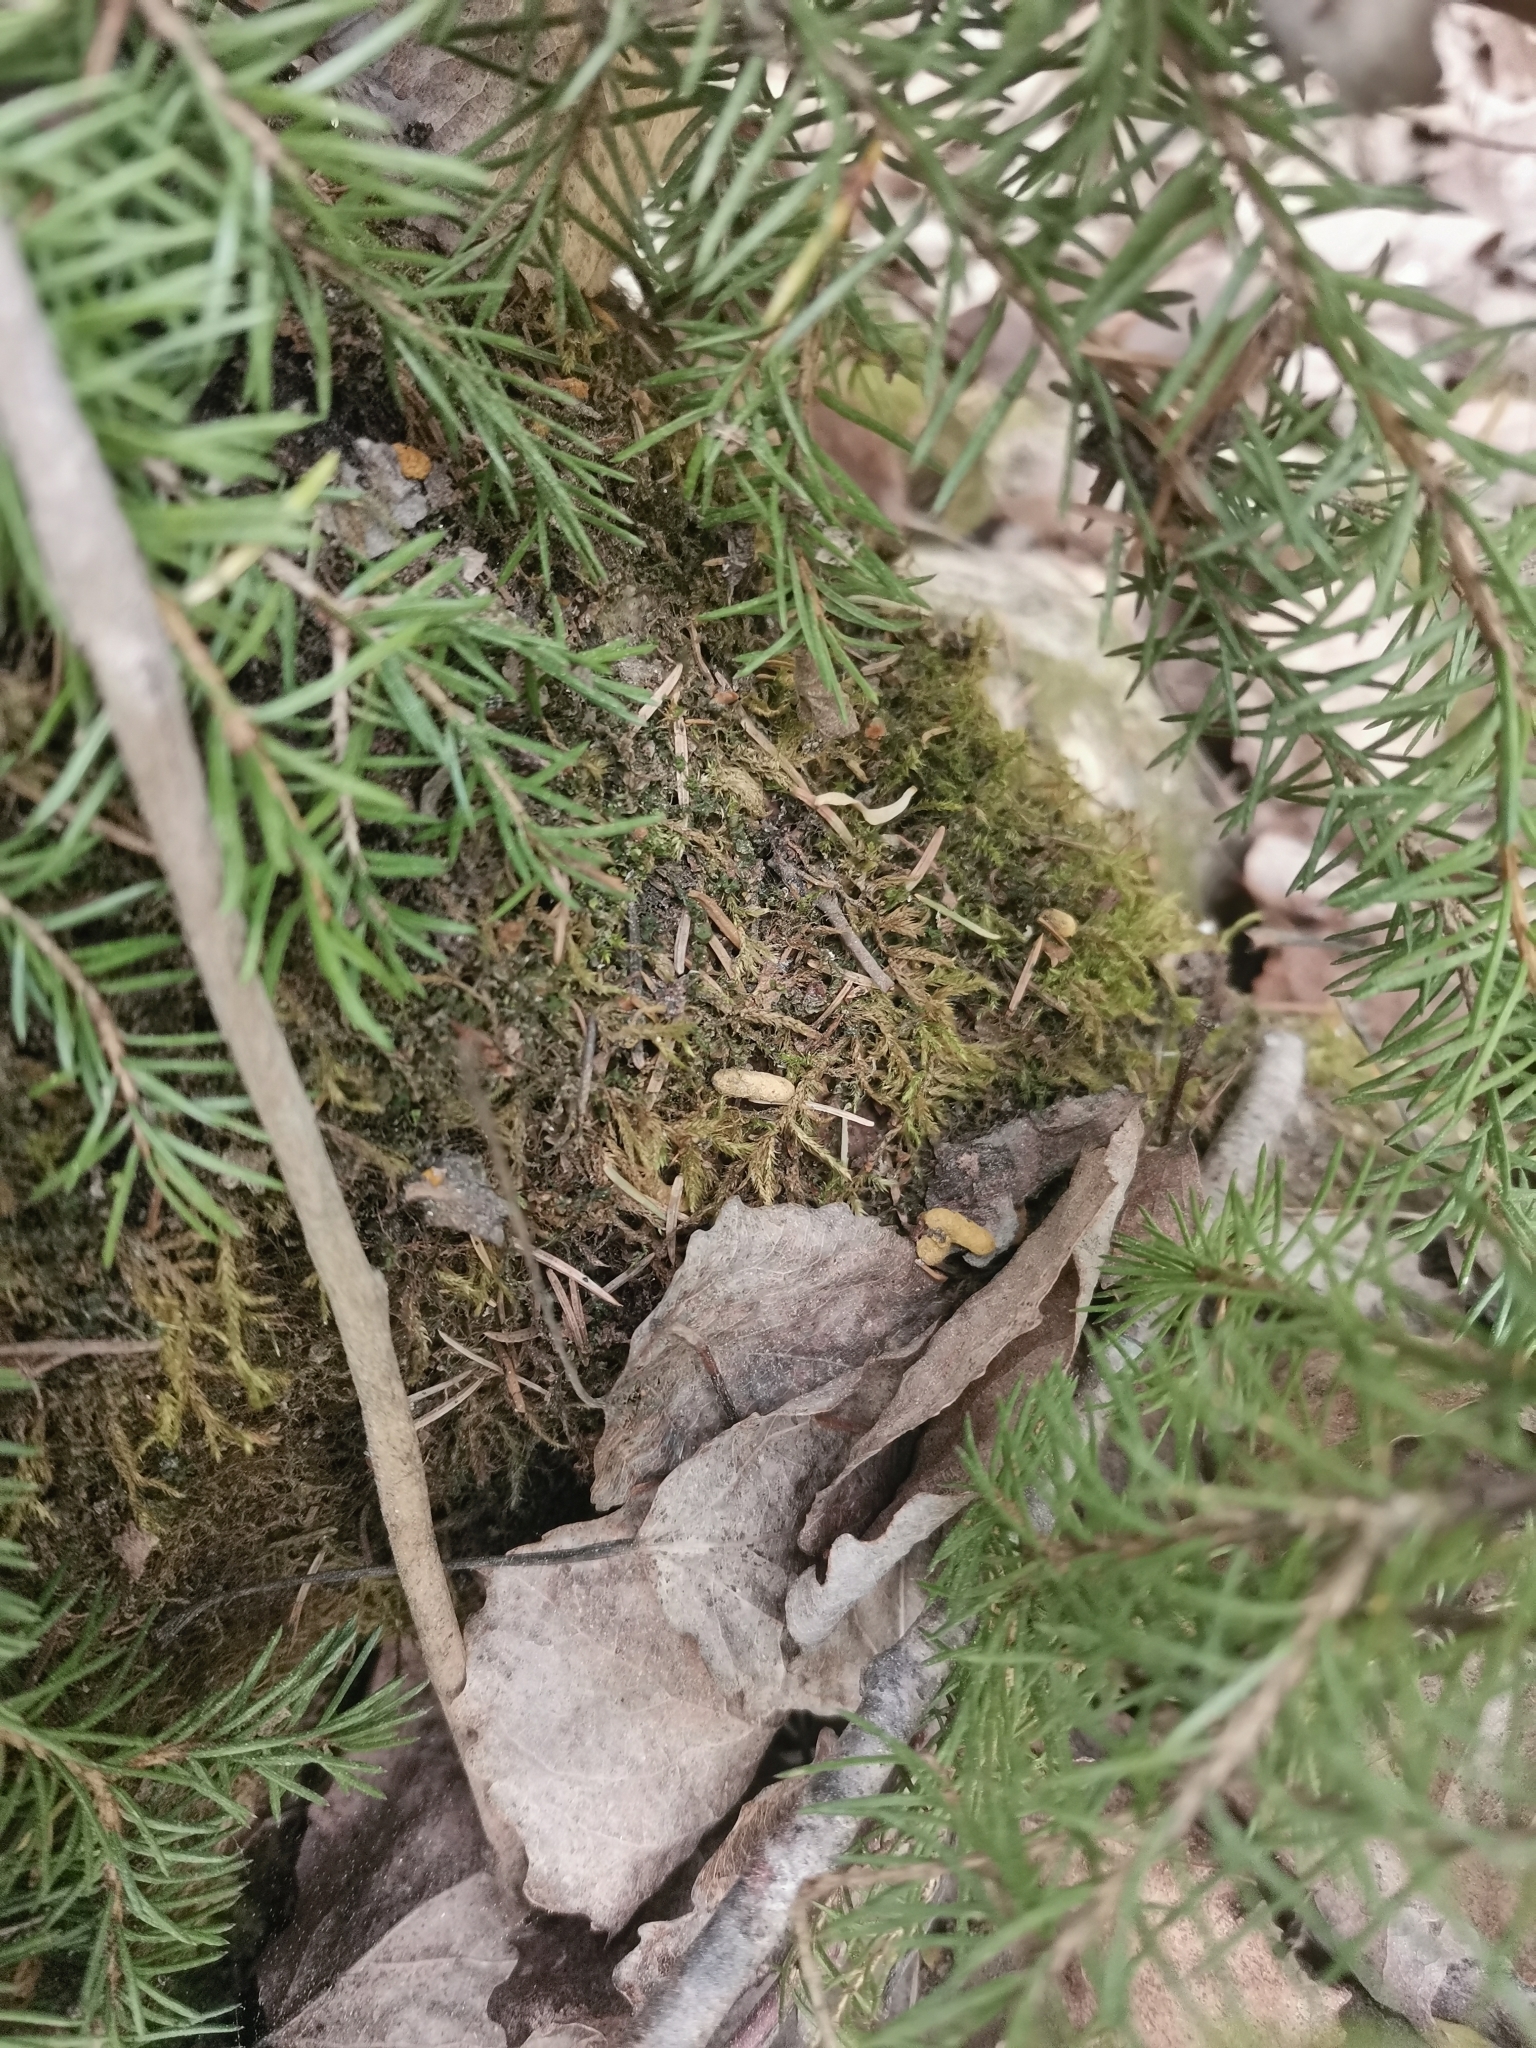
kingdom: Animalia
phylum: Chordata
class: Mammalia
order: Rodentia
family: Sciuridae
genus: Pteromys
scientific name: Pteromys volans
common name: Siberian flying squirrel
